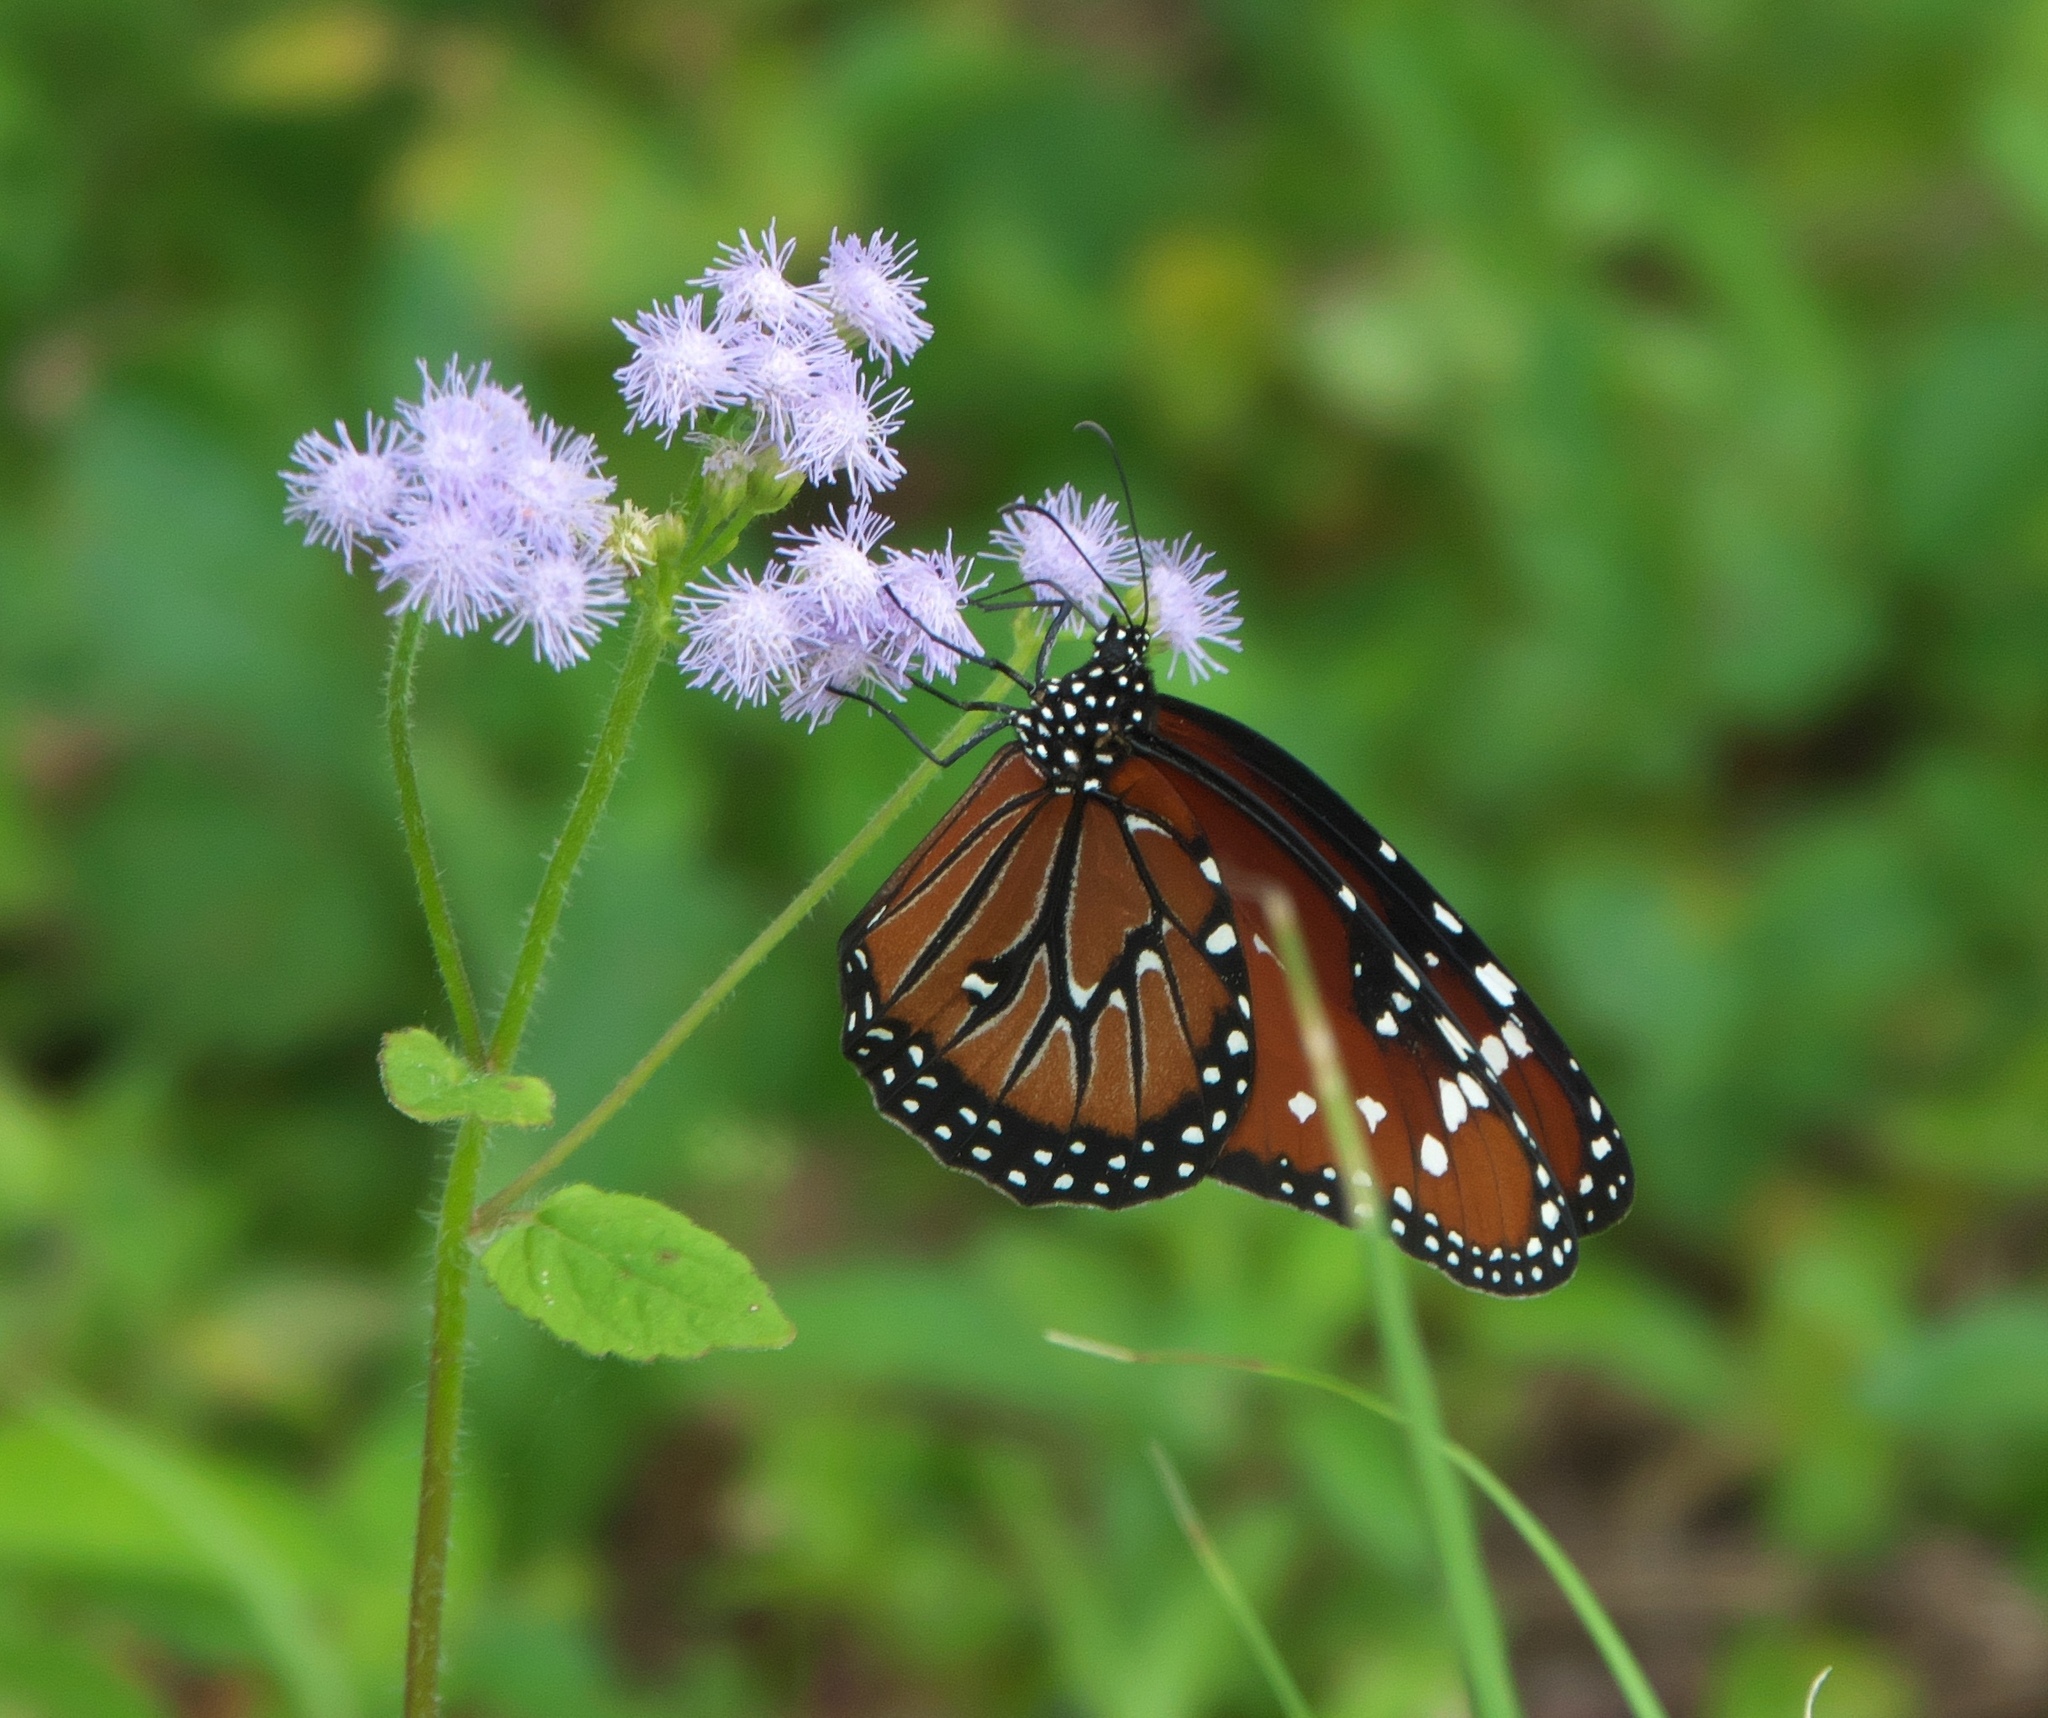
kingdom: Animalia
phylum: Arthropoda
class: Insecta
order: Lepidoptera
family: Nymphalidae
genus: Danaus
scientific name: Danaus gilippus
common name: Queen
